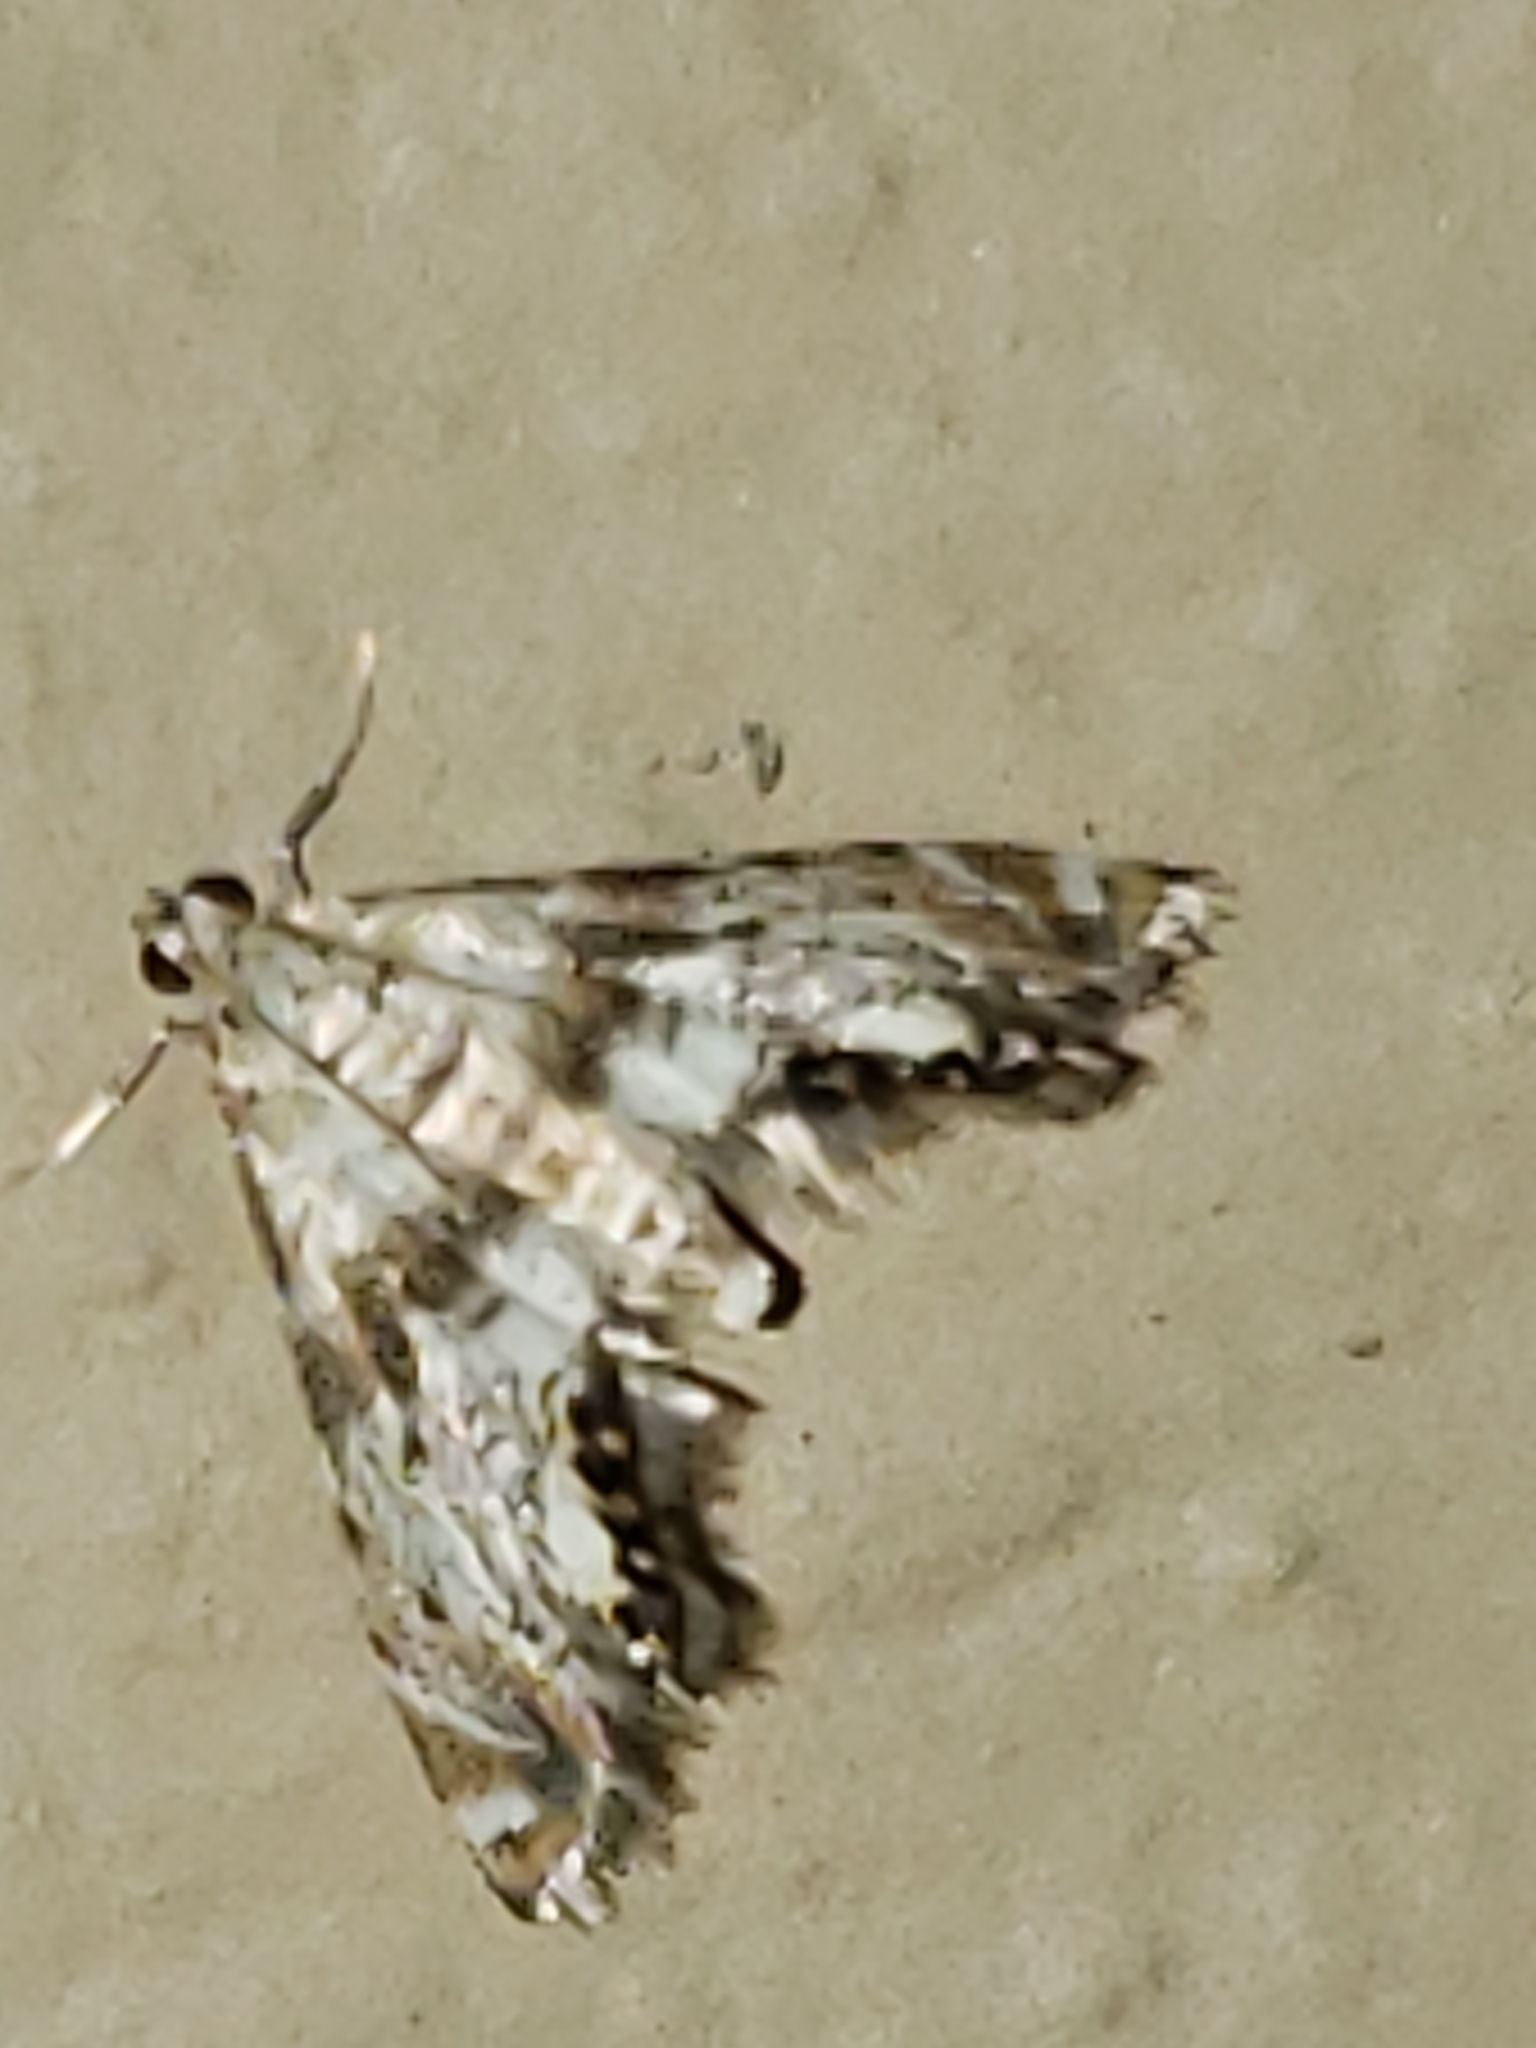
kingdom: Animalia
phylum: Arthropoda
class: Insecta
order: Lepidoptera
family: Crambidae
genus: Petrophila
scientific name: Petrophila fulicalis
